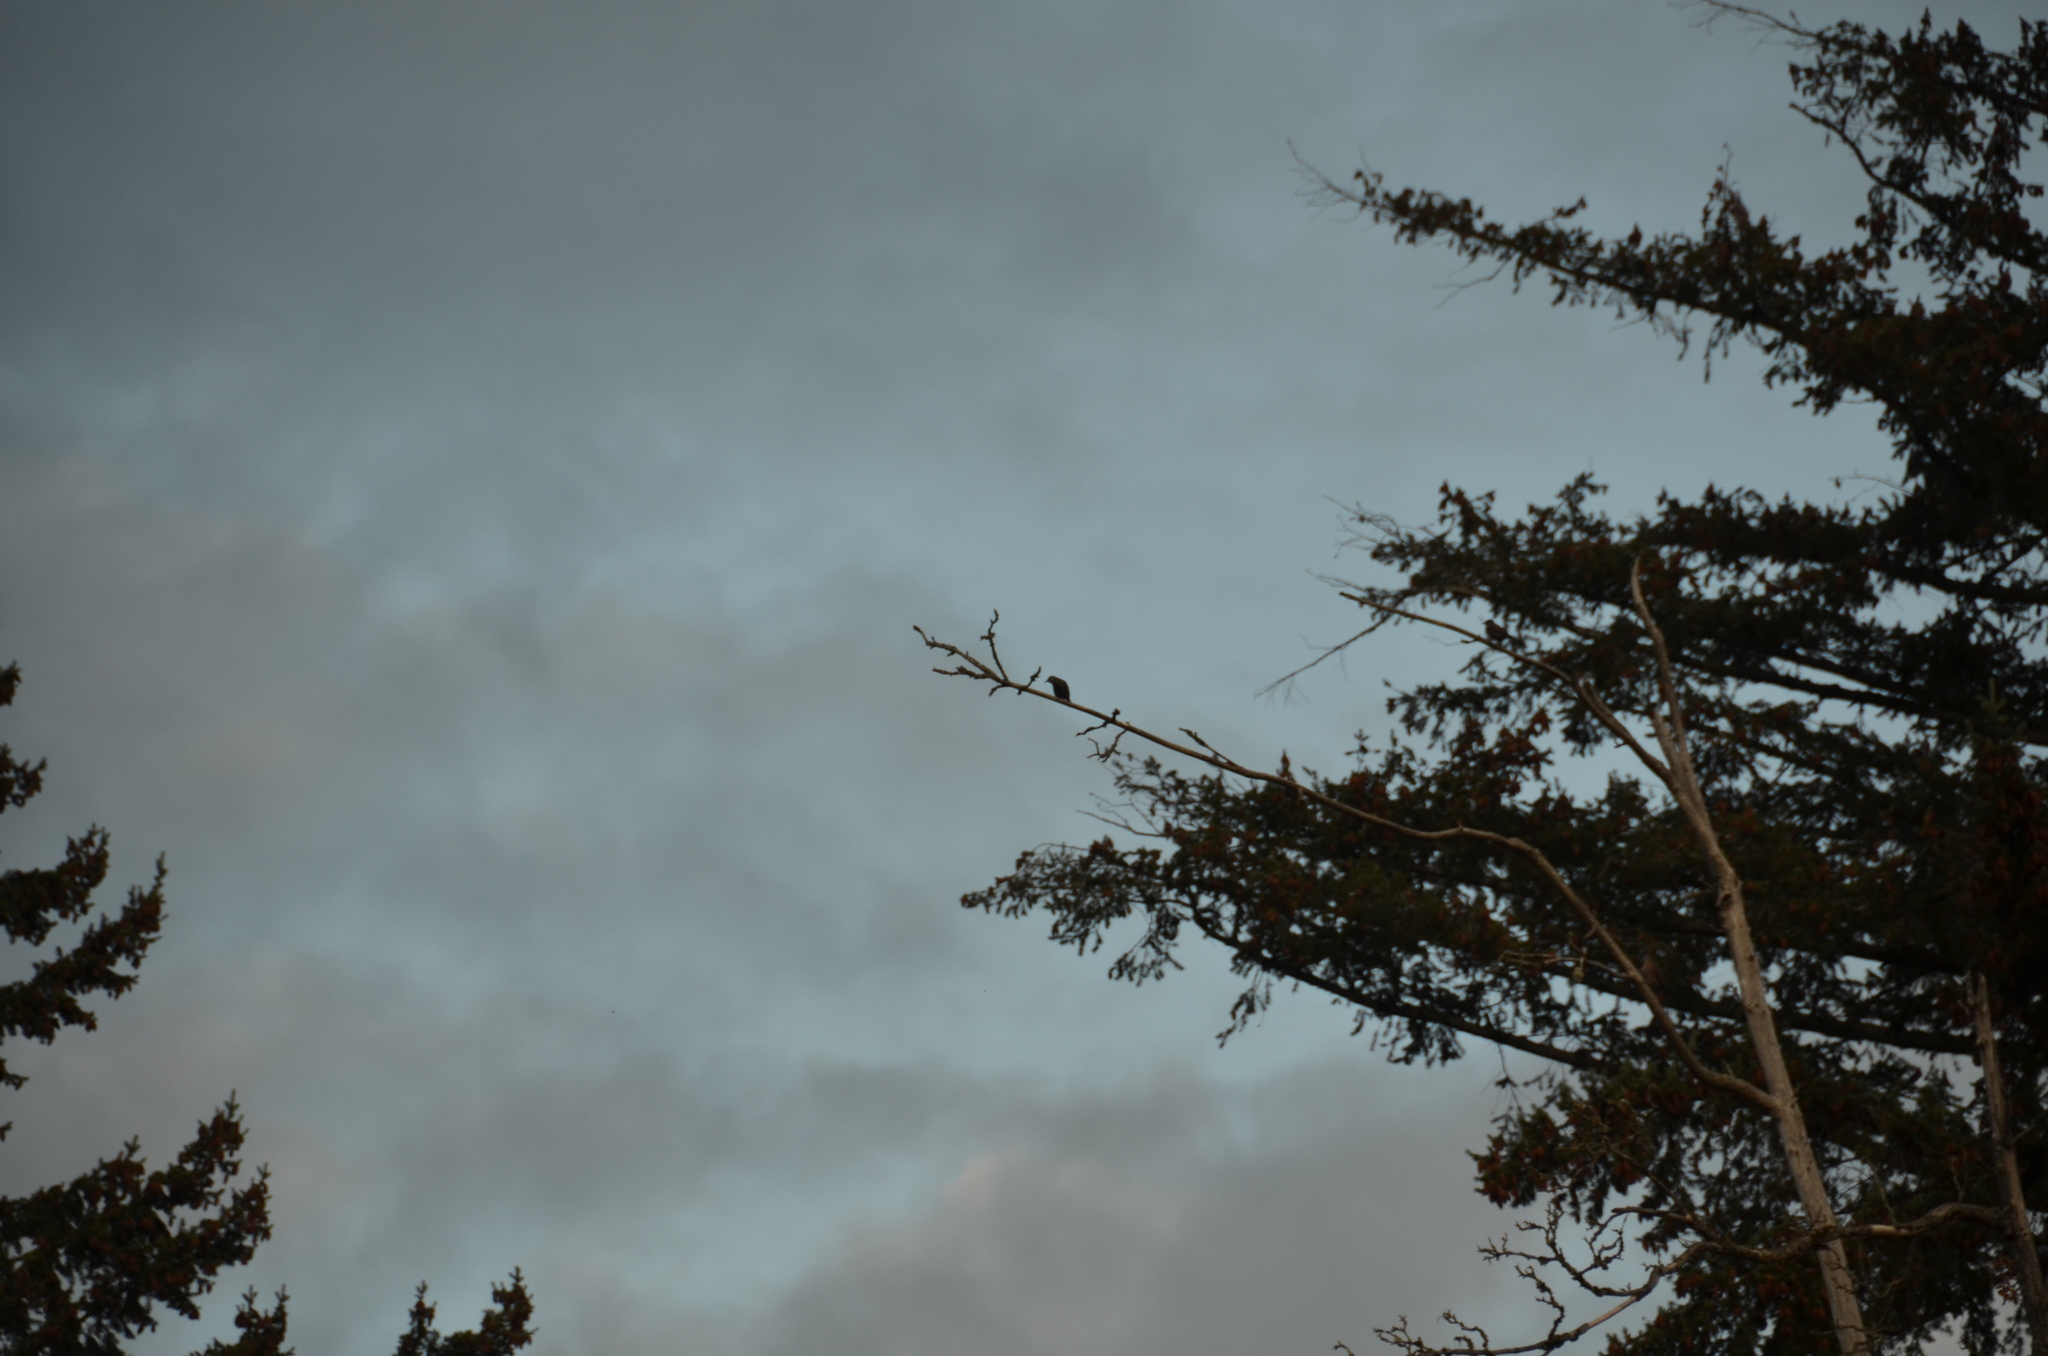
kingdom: Animalia
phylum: Chordata
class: Aves
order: Passeriformes
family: Sturnidae
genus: Sturnus
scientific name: Sturnus vulgaris
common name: Common starling
